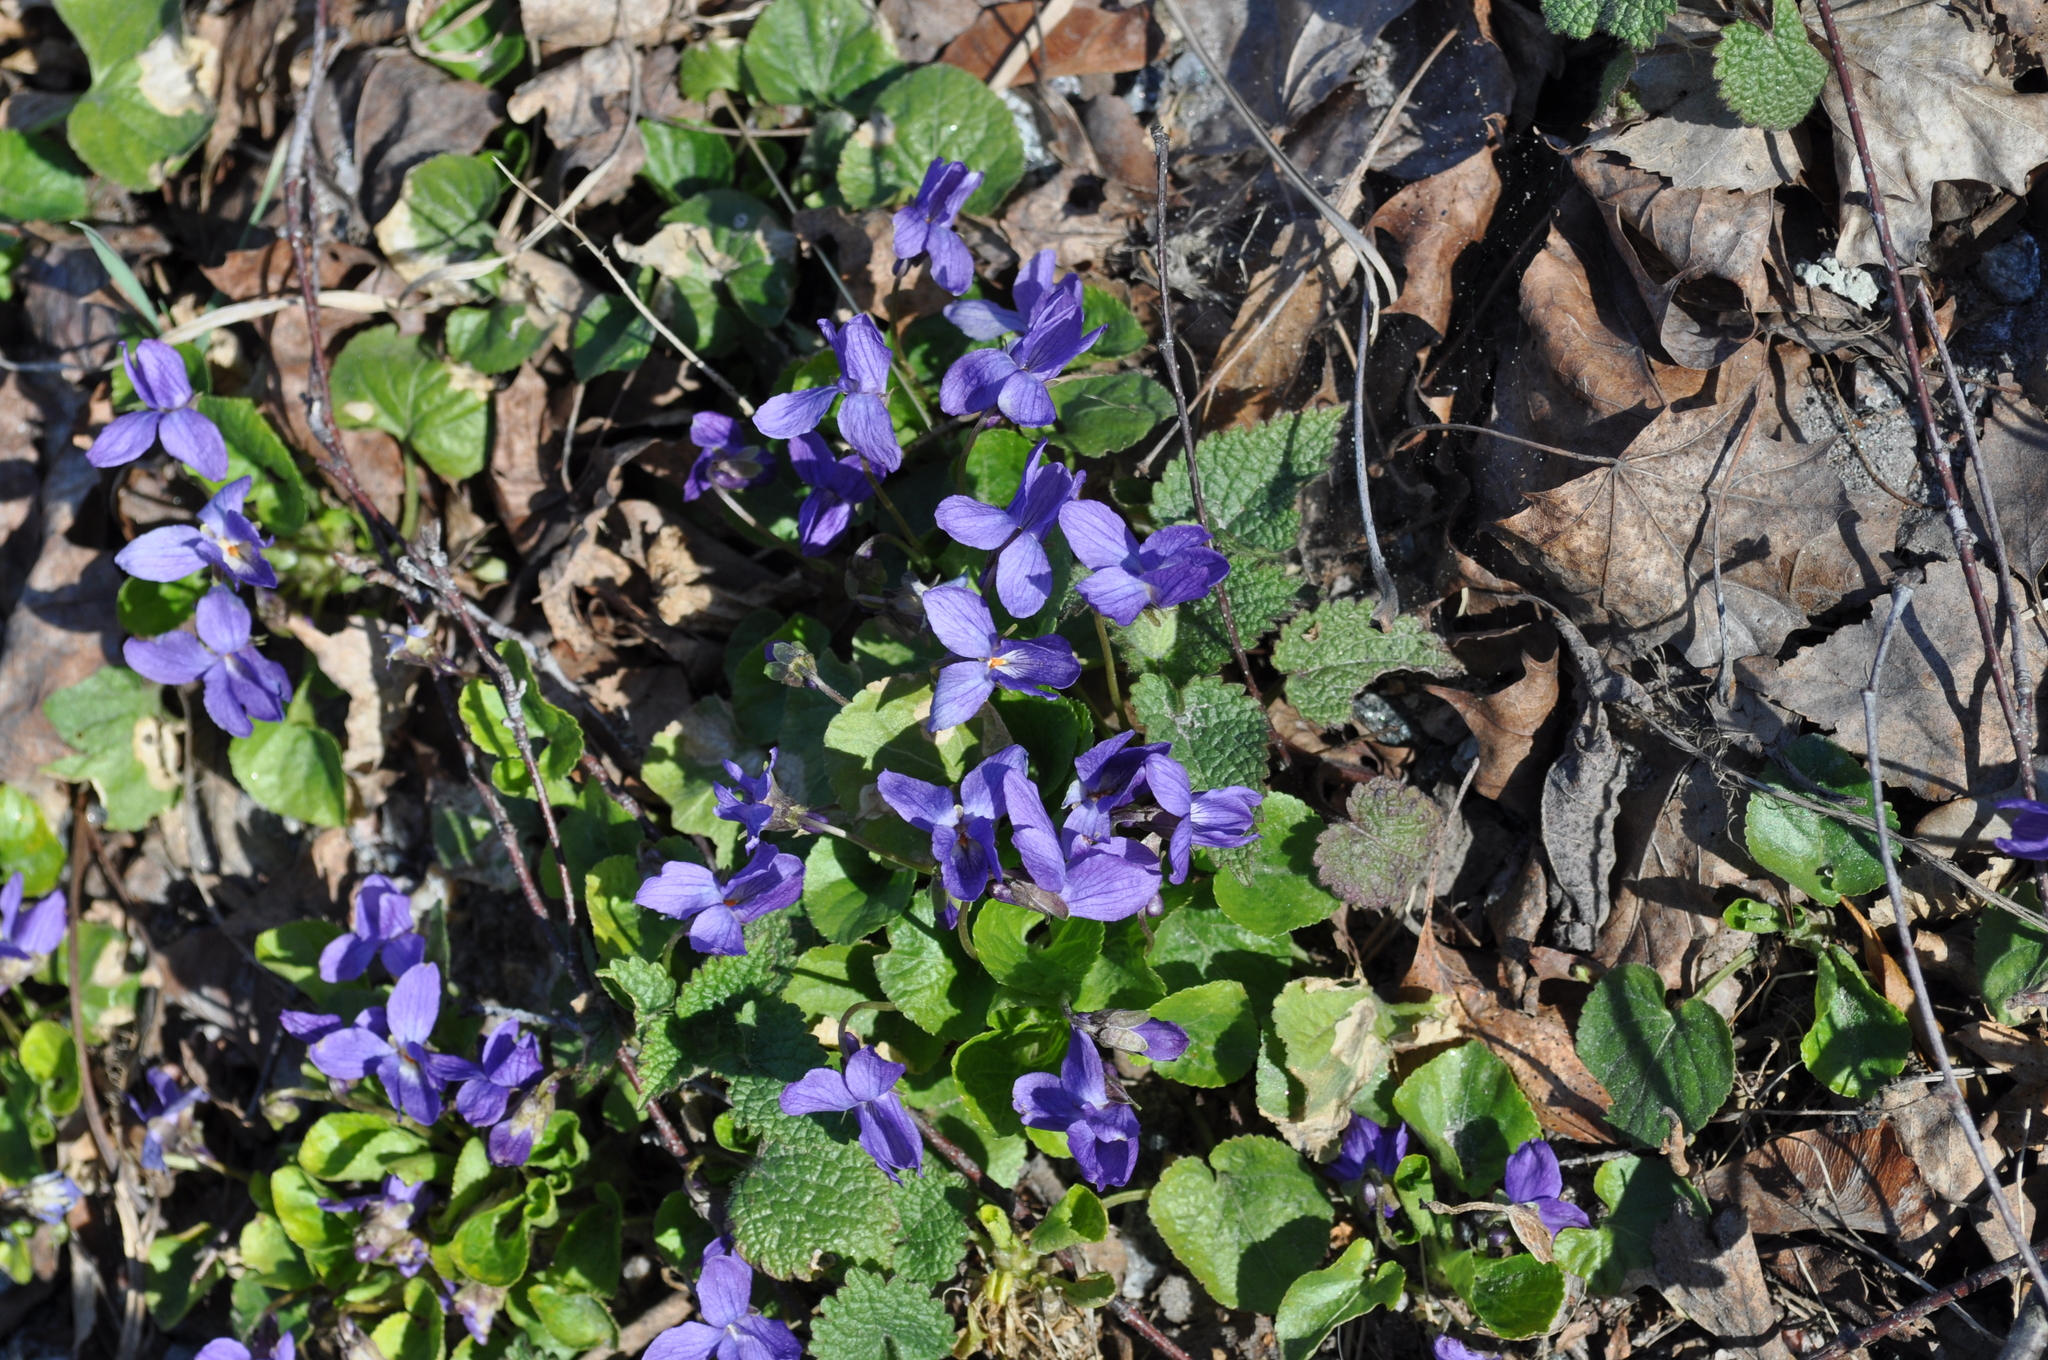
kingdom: Plantae
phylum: Tracheophyta
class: Magnoliopsida
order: Malpighiales
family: Violaceae
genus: Viola
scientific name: Viola odorata
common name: Sweet violet
